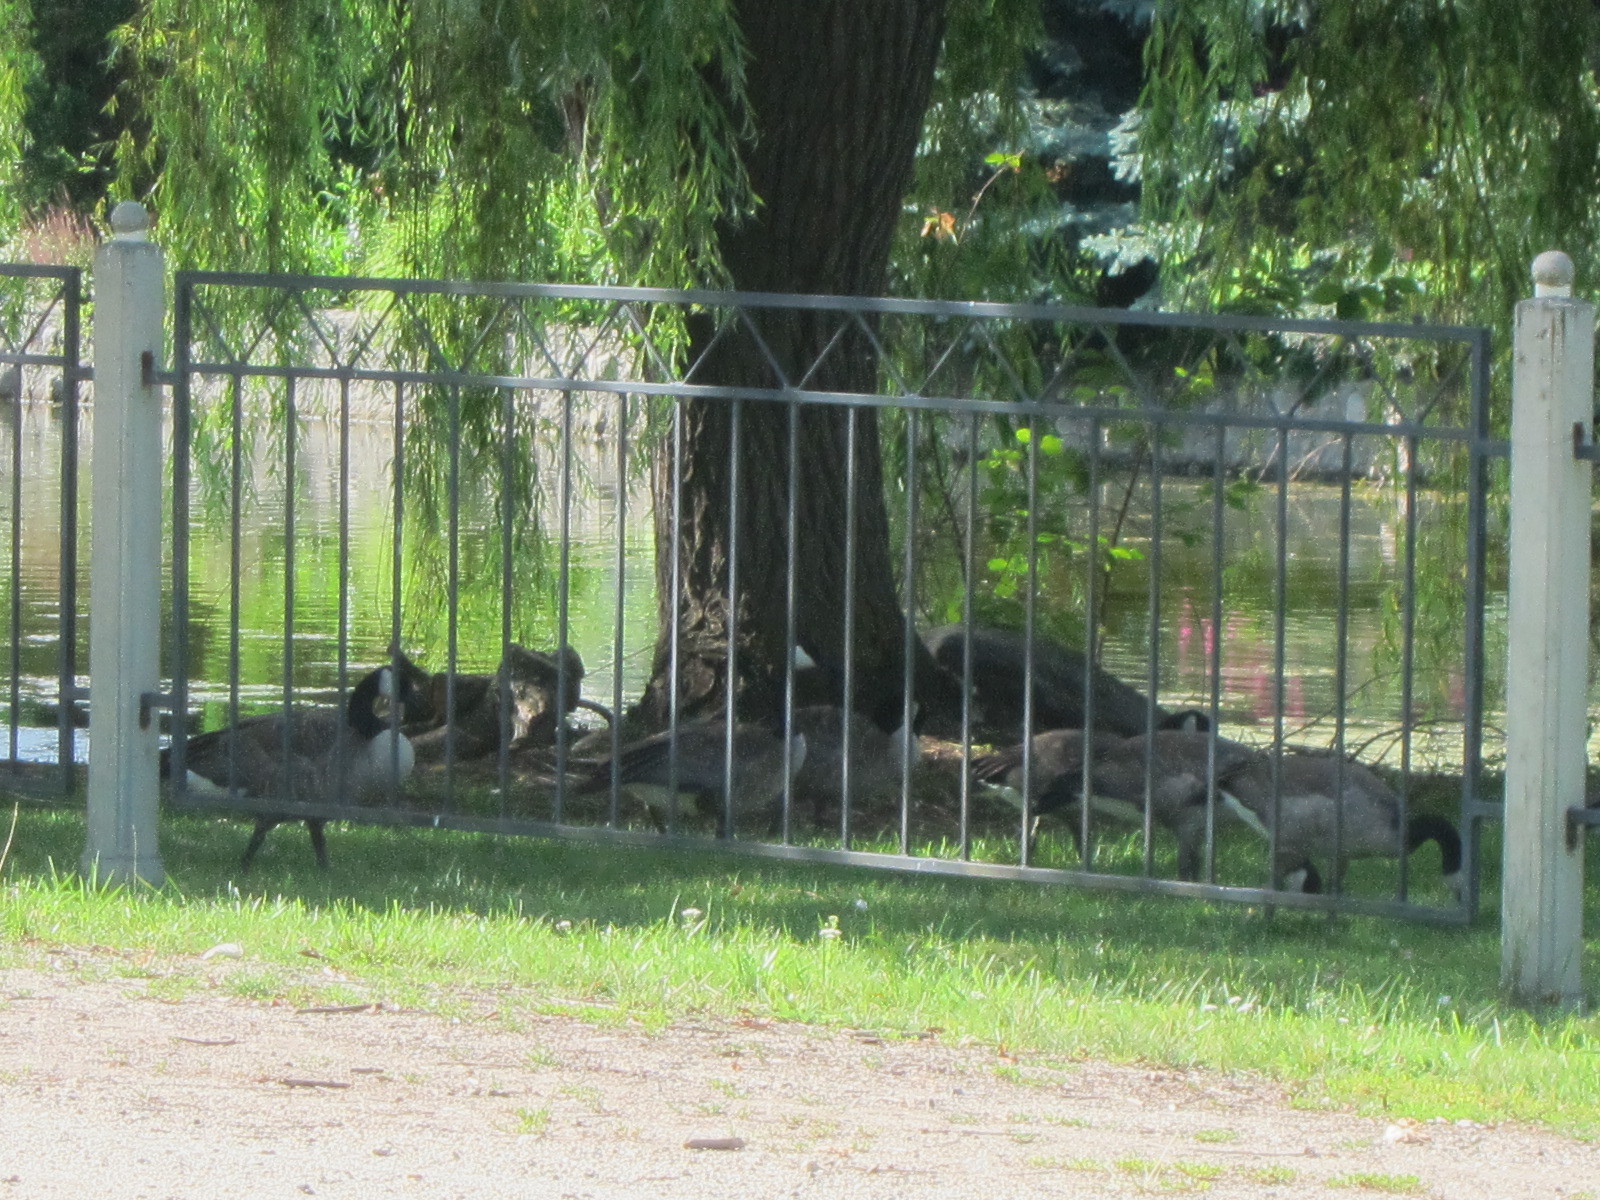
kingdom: Animalia
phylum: Chordata
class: Aves
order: Anseriformes
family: Anatidae
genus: Branta
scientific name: Branta canadensis
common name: Canada goose
